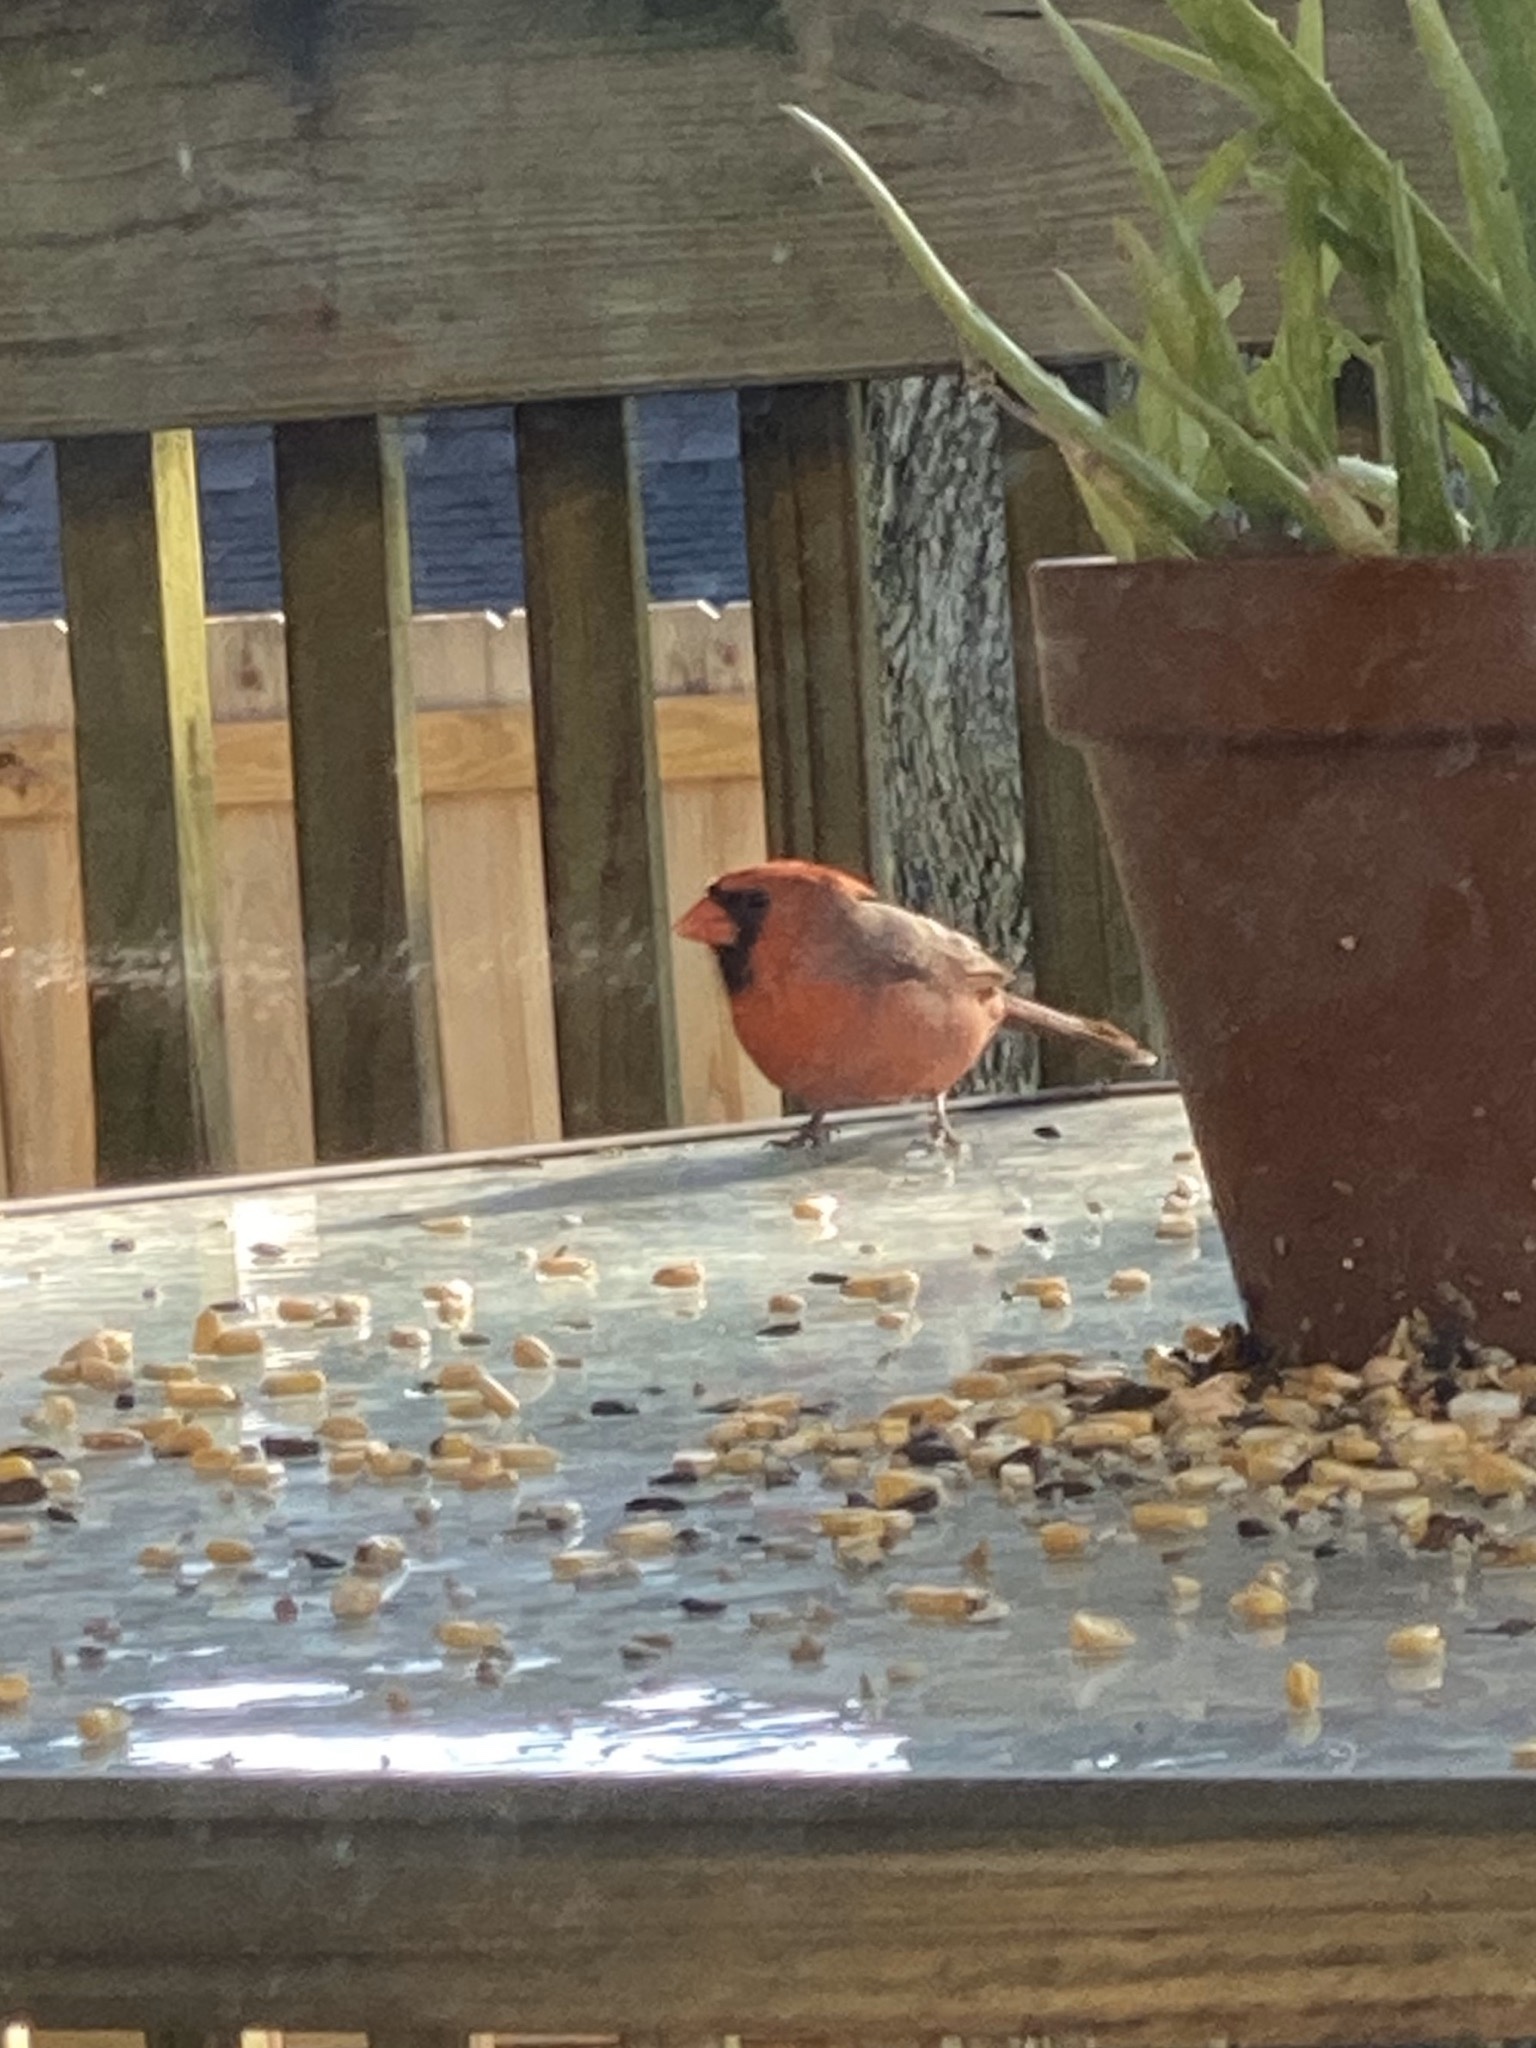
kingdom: Animalia
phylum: Chordata
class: Aves
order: Passeriformes
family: Cardinalidae
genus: Cardinalis
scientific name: Cardinalis cardinalis
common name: Northern cardinal
